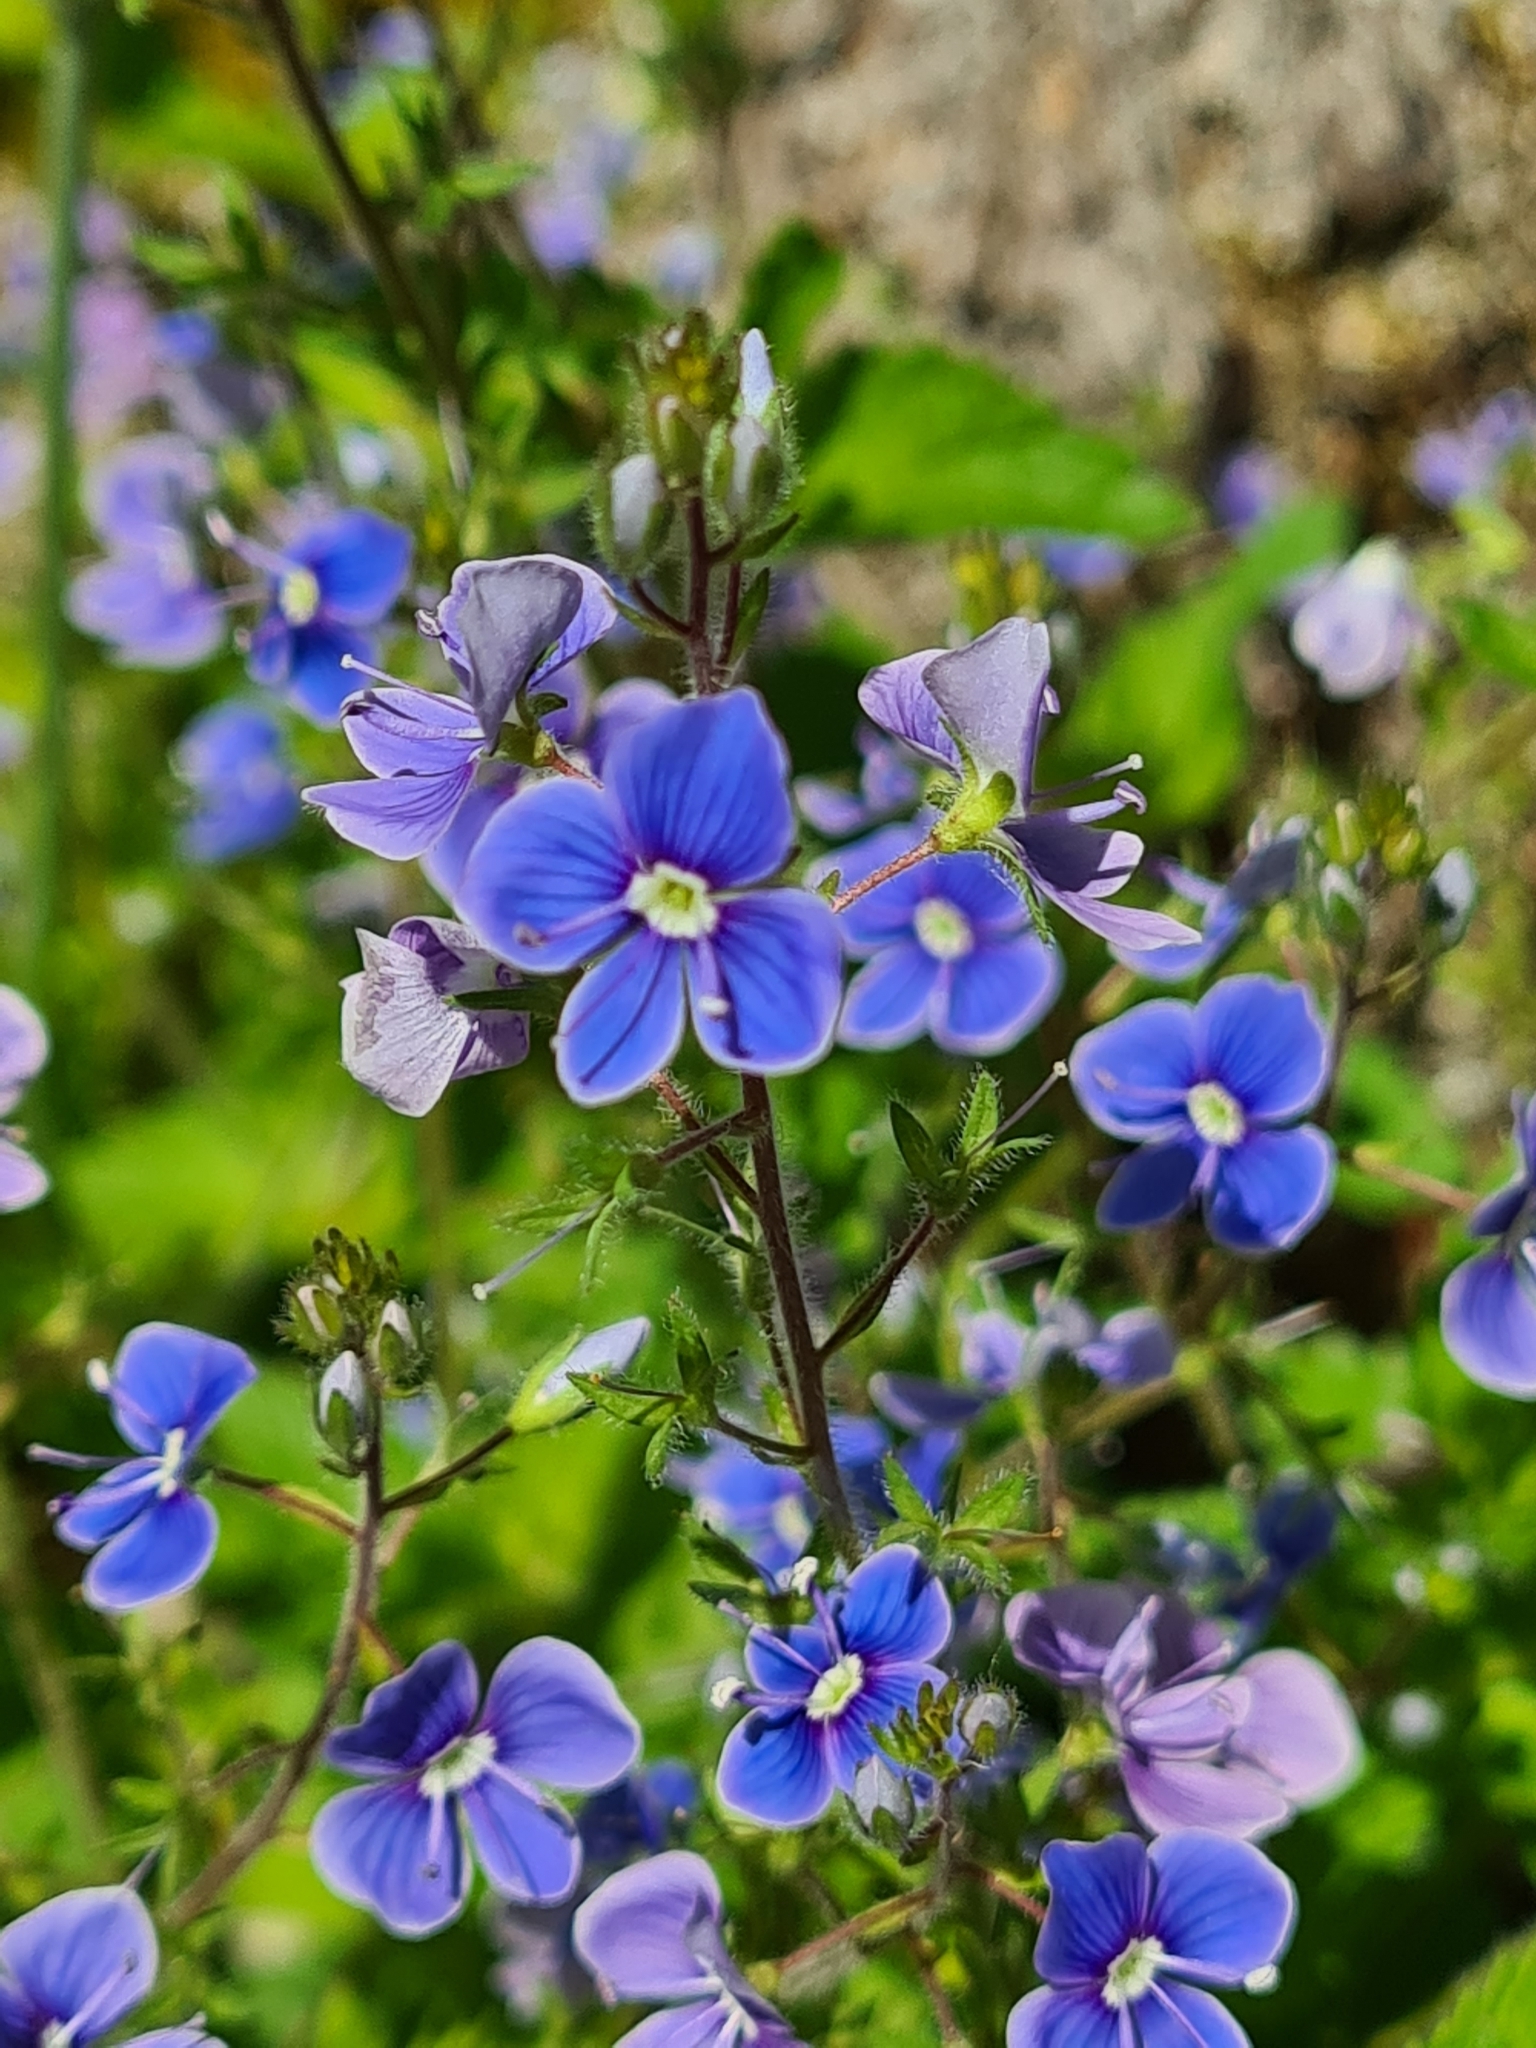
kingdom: Plantae
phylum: Tracheophyta
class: Magnoliopsida
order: Lamiales
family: Plantaginaceae
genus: Veronica
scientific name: Veronica chamaedrys
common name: Germander speedwell
